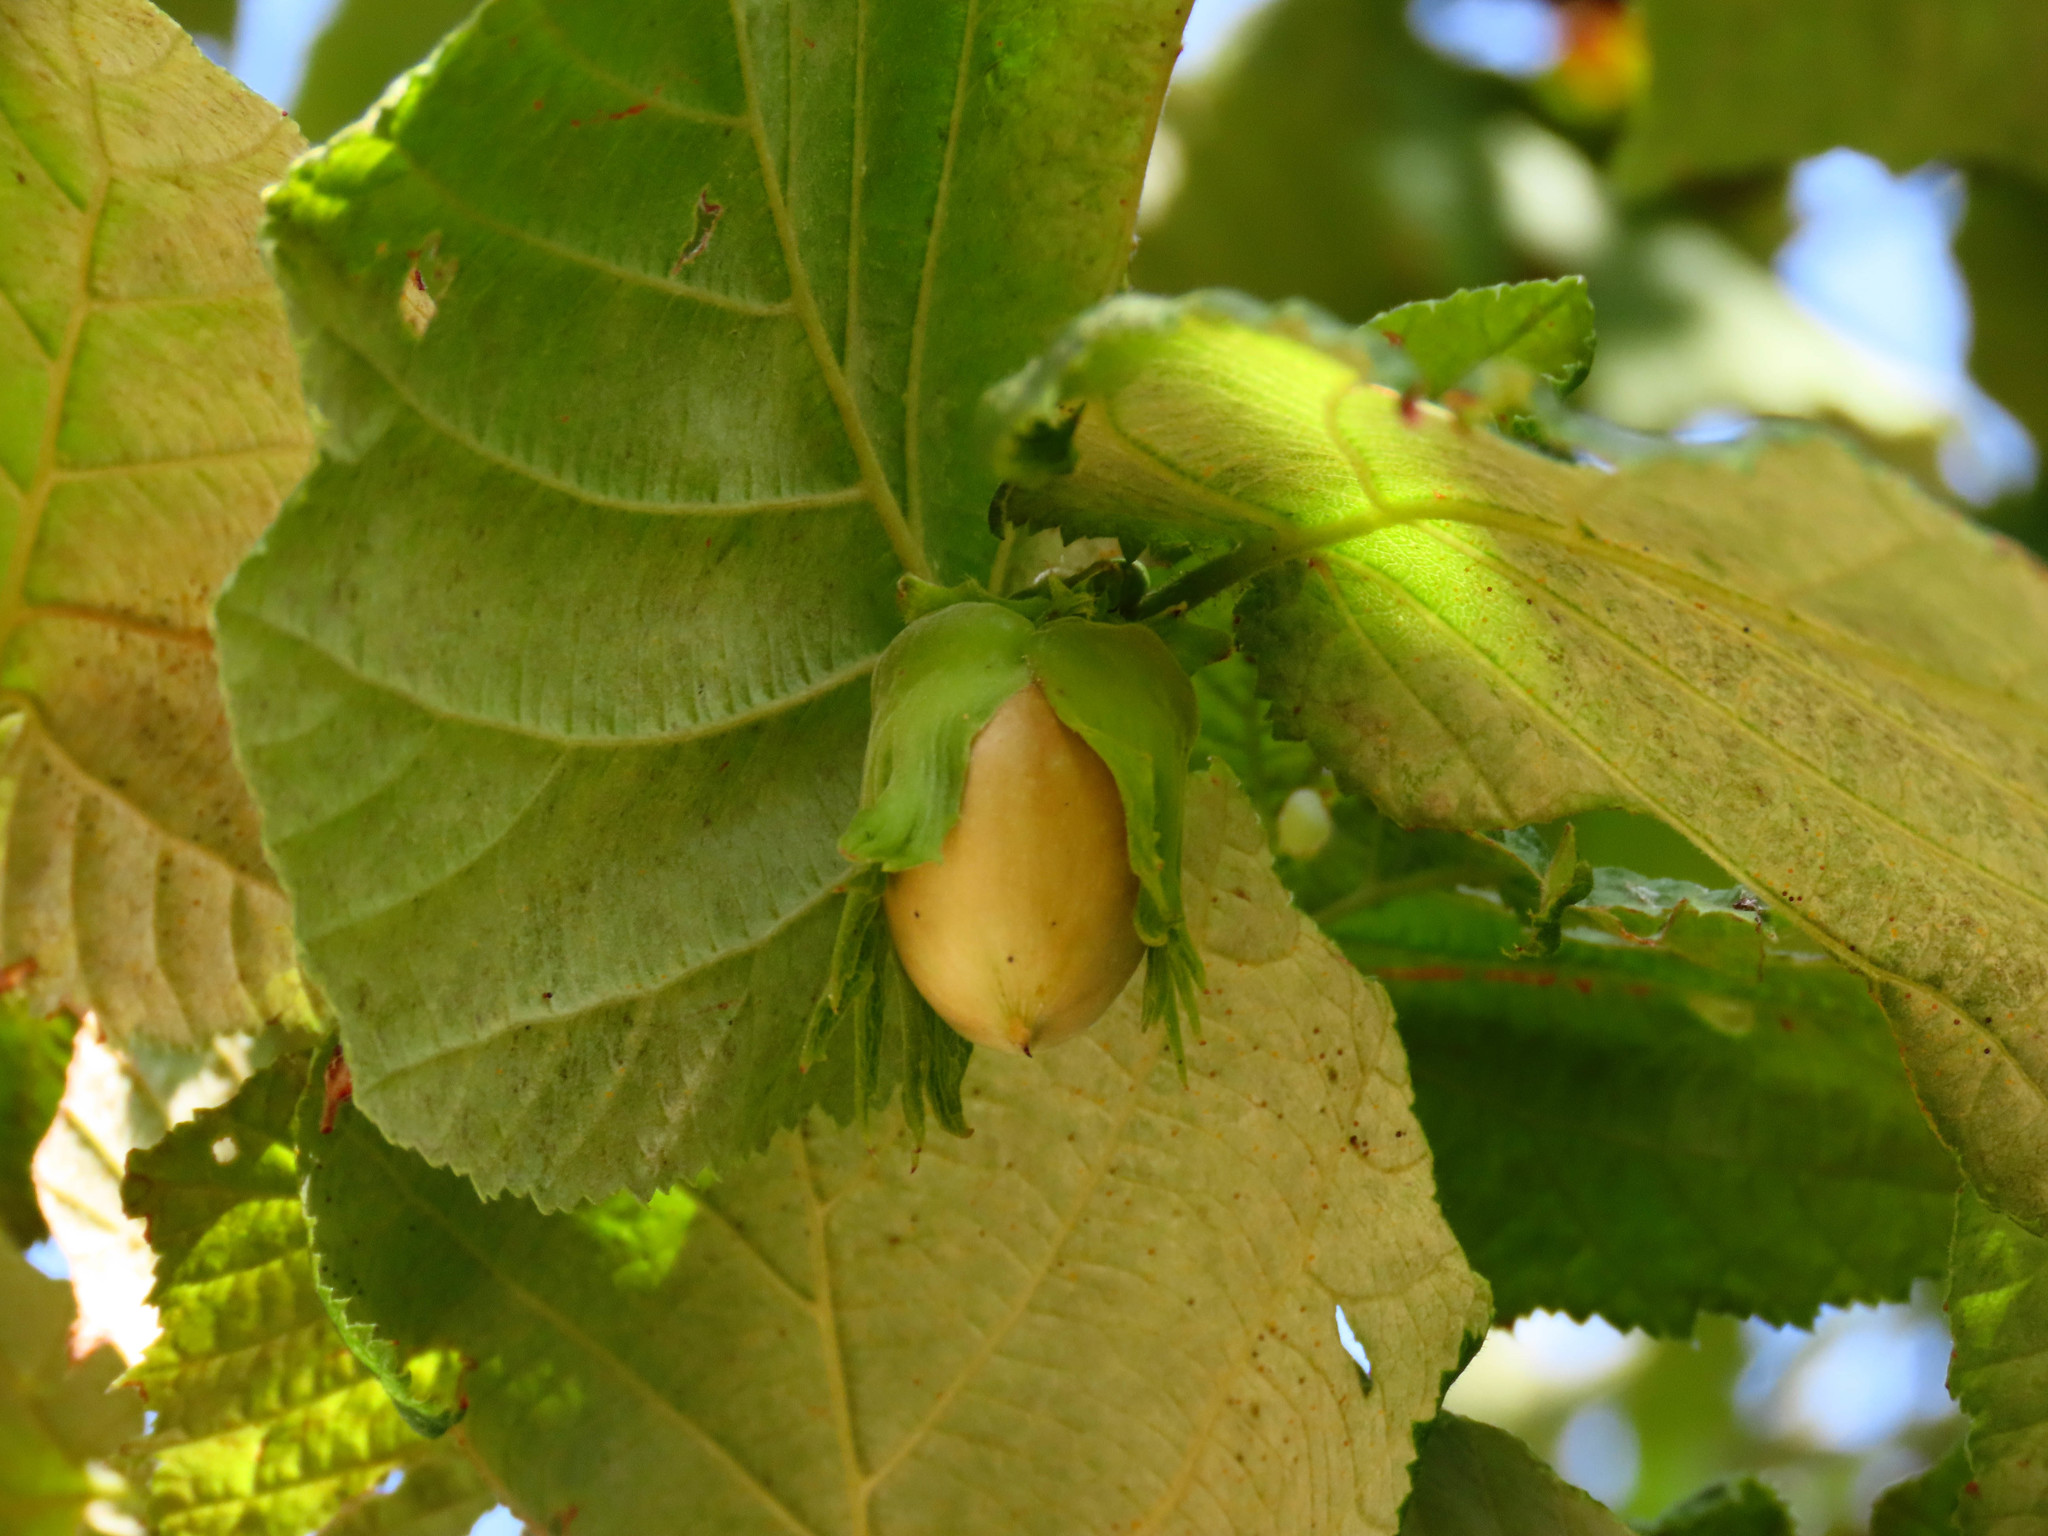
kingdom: Plantae
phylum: Tracheophyta
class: Magnoliopsida
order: Fagales
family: Betulaceae
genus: Corylus
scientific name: Corylus avellana
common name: European hazel
